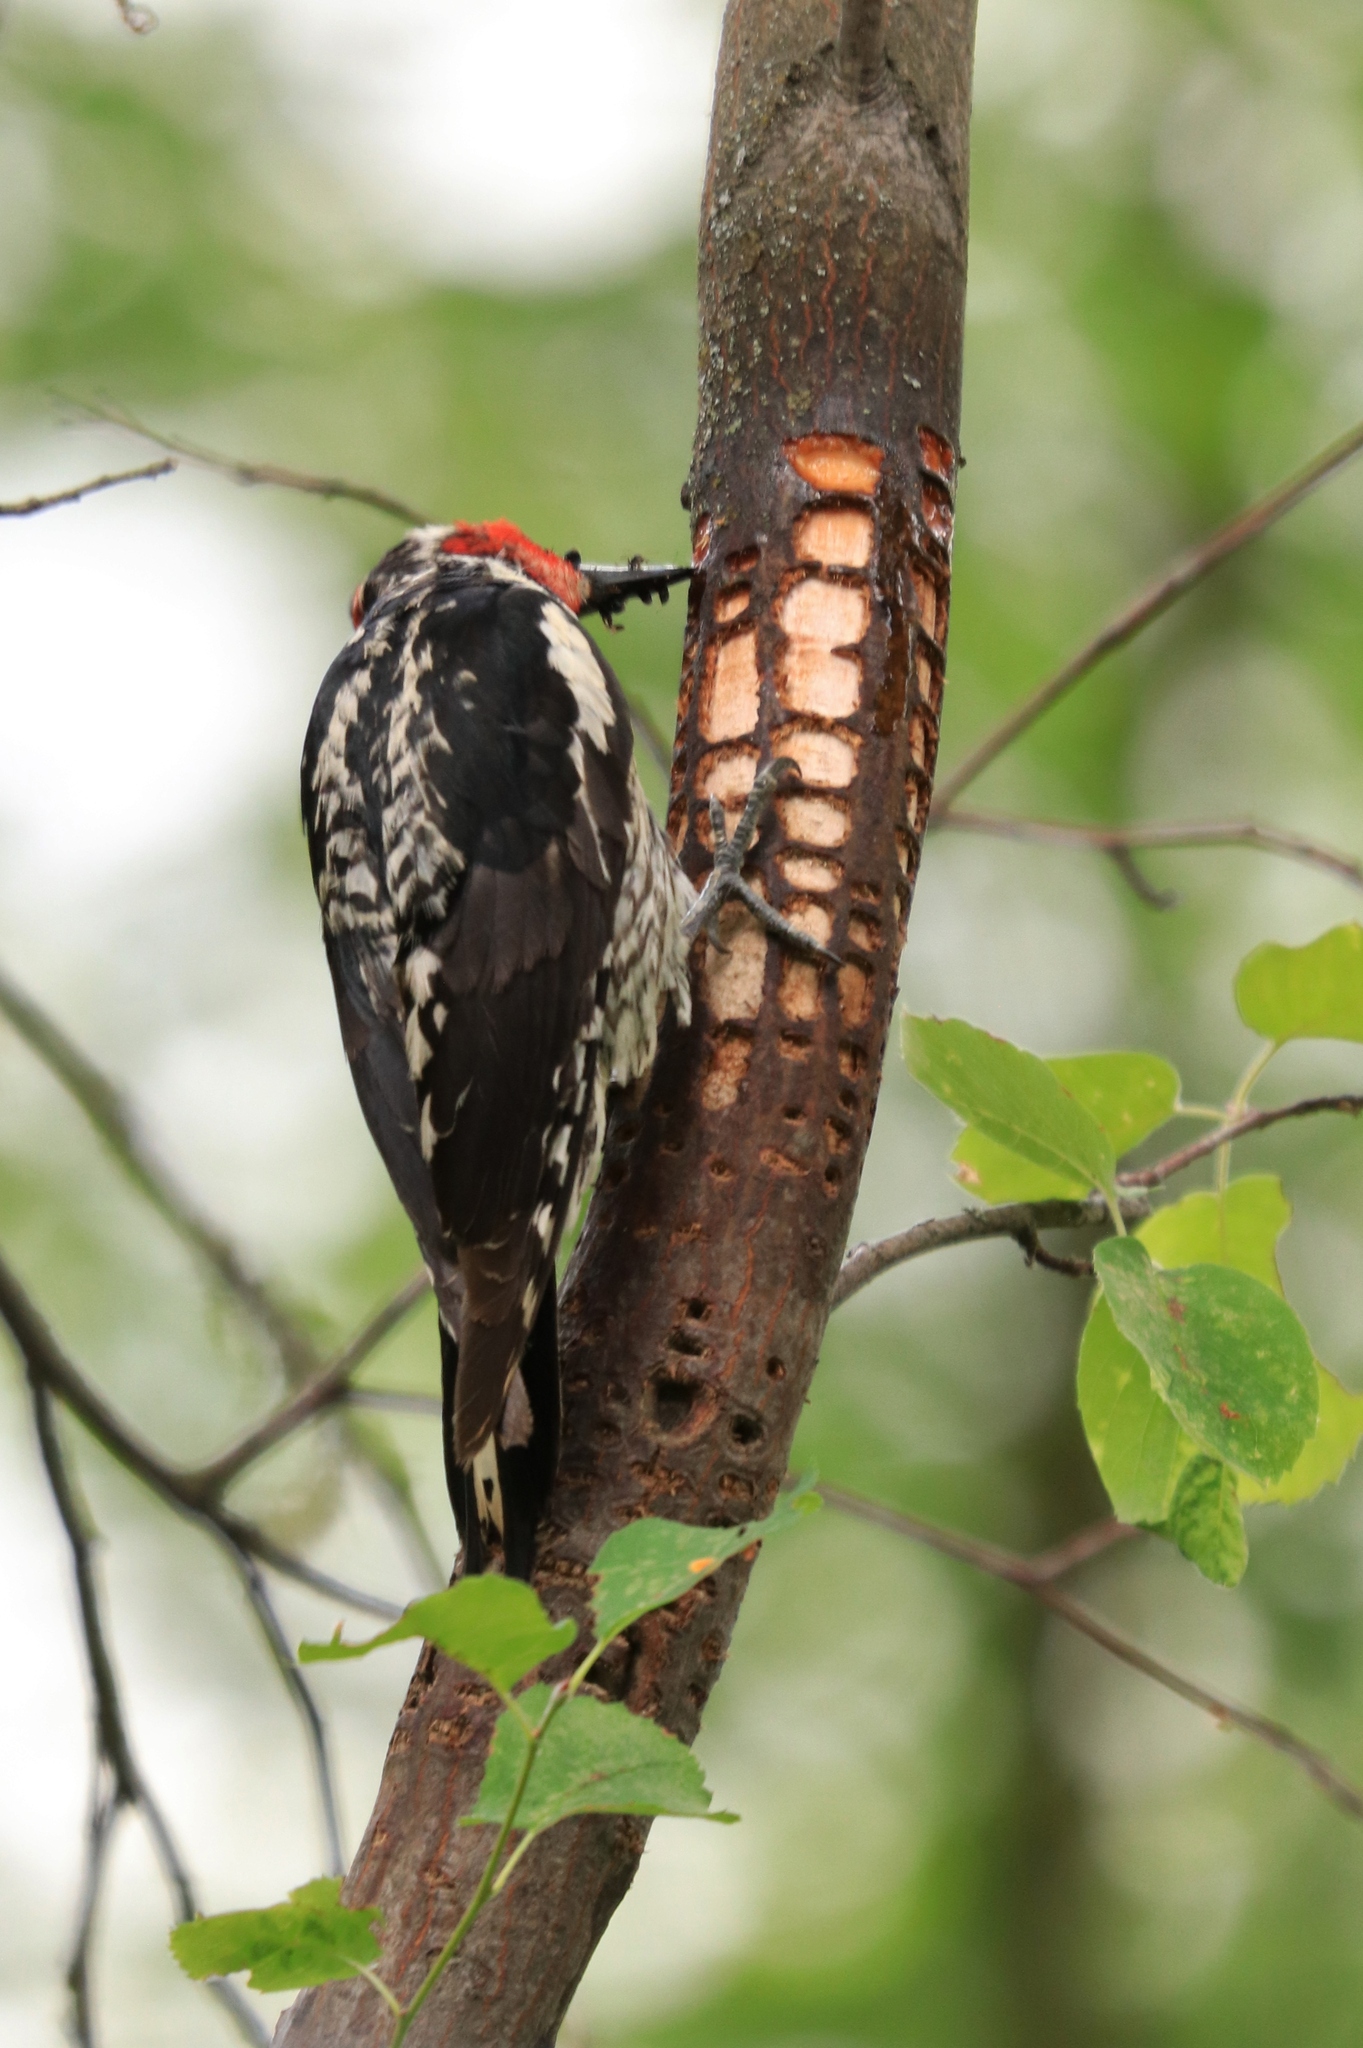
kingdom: Animalia
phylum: Chordata
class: Aves
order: Piciformes
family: Picidae
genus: Sphyrapicus
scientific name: Sphyrapicus nuchalis
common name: Red-naped sapsucker
